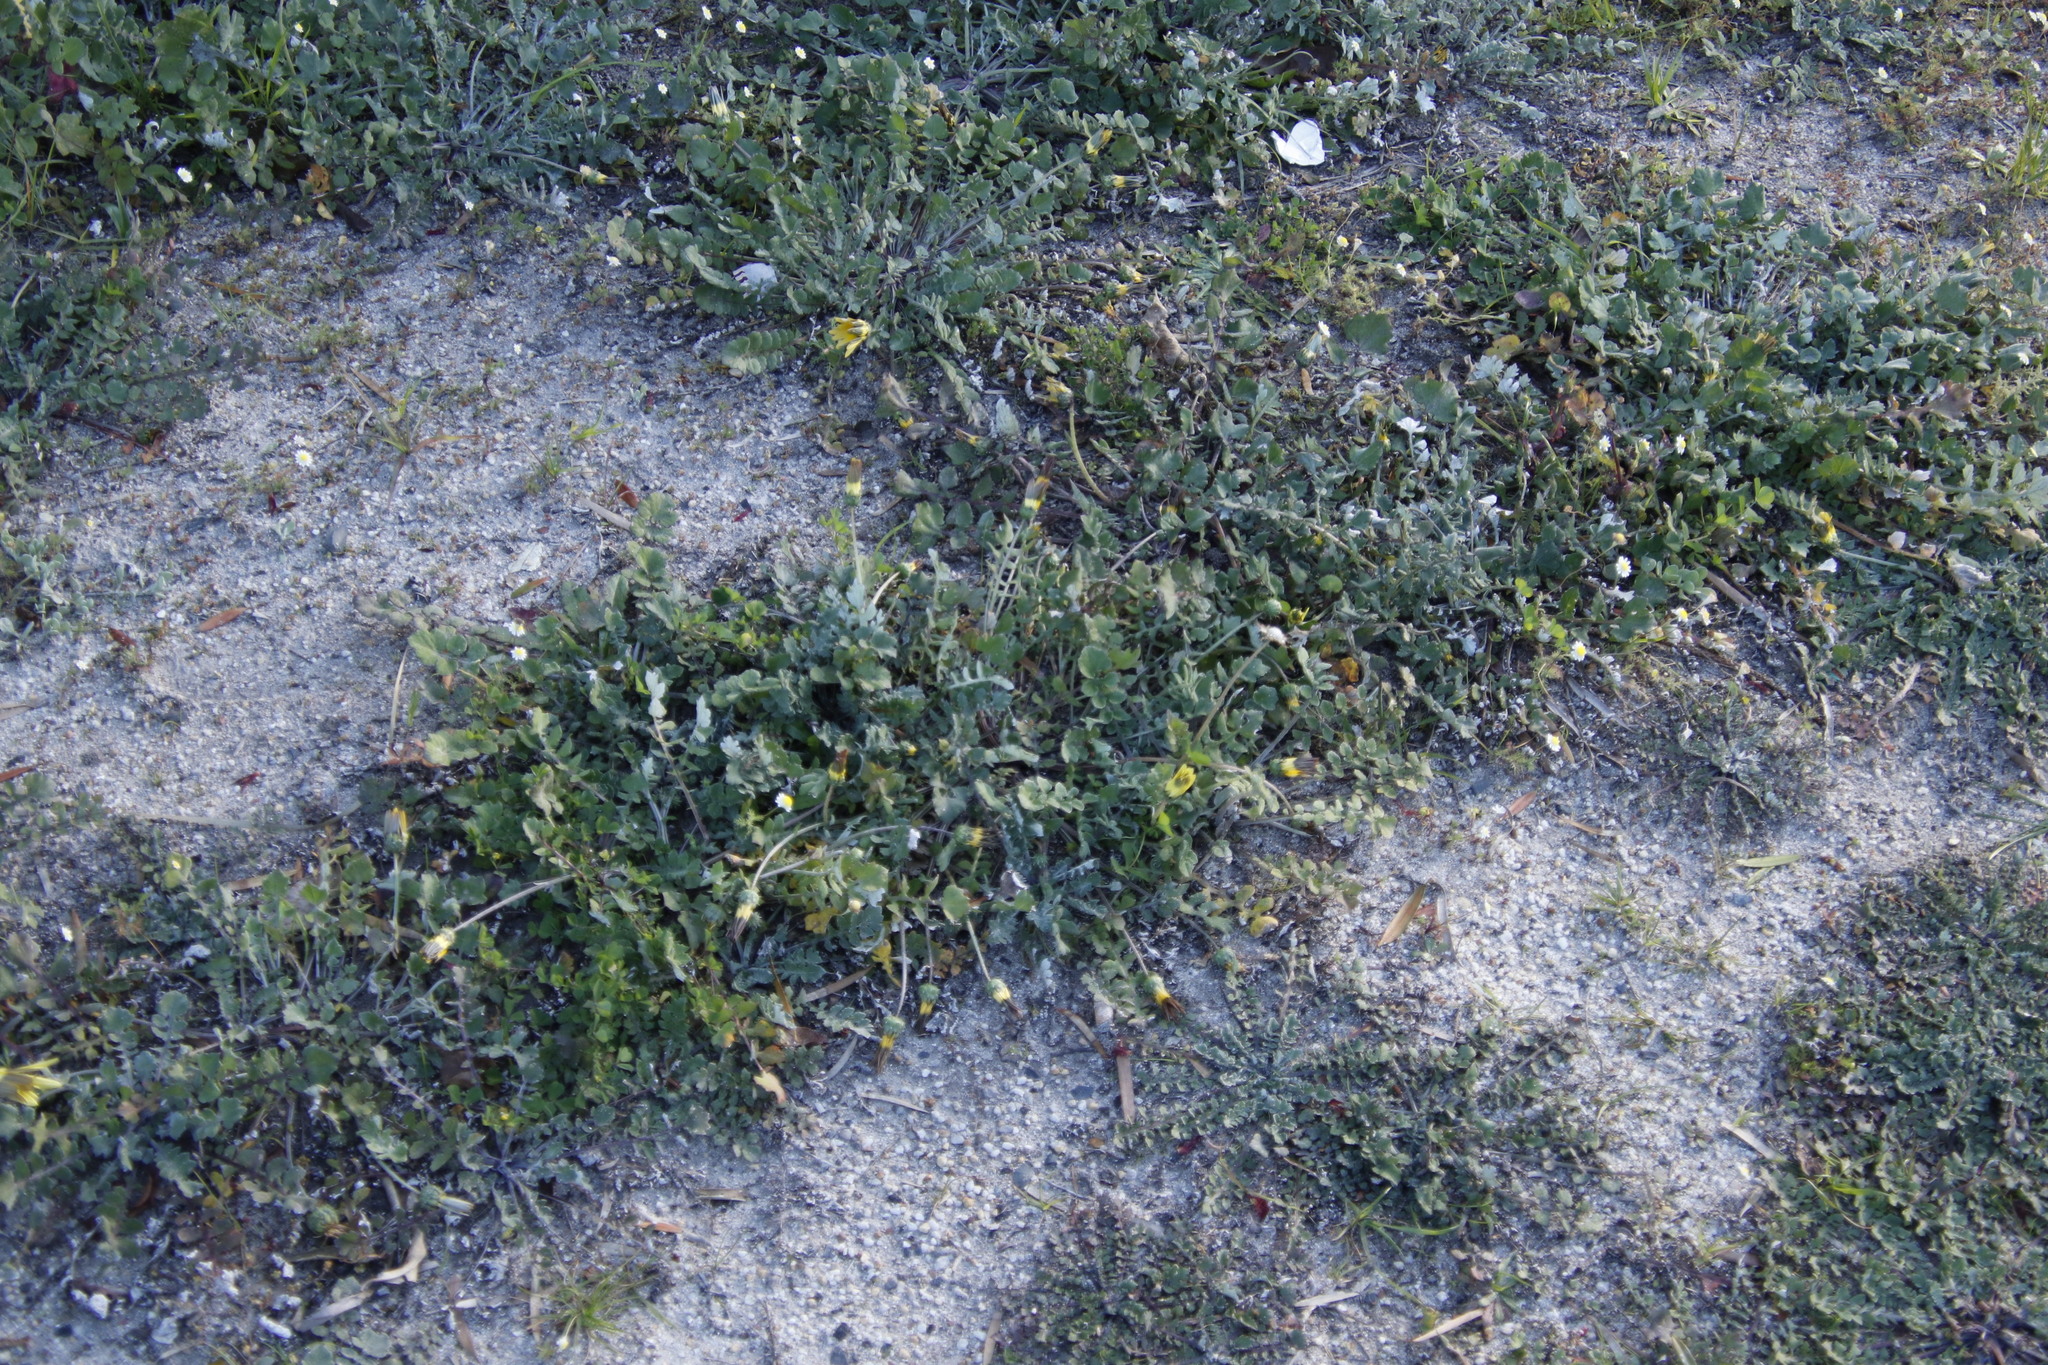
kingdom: Plantae
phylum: Tracheophyta
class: Magnoliopsida
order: Asterales
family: Asteraceae
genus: Arctotheca
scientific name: Arctotheca calendula
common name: Capeweed
